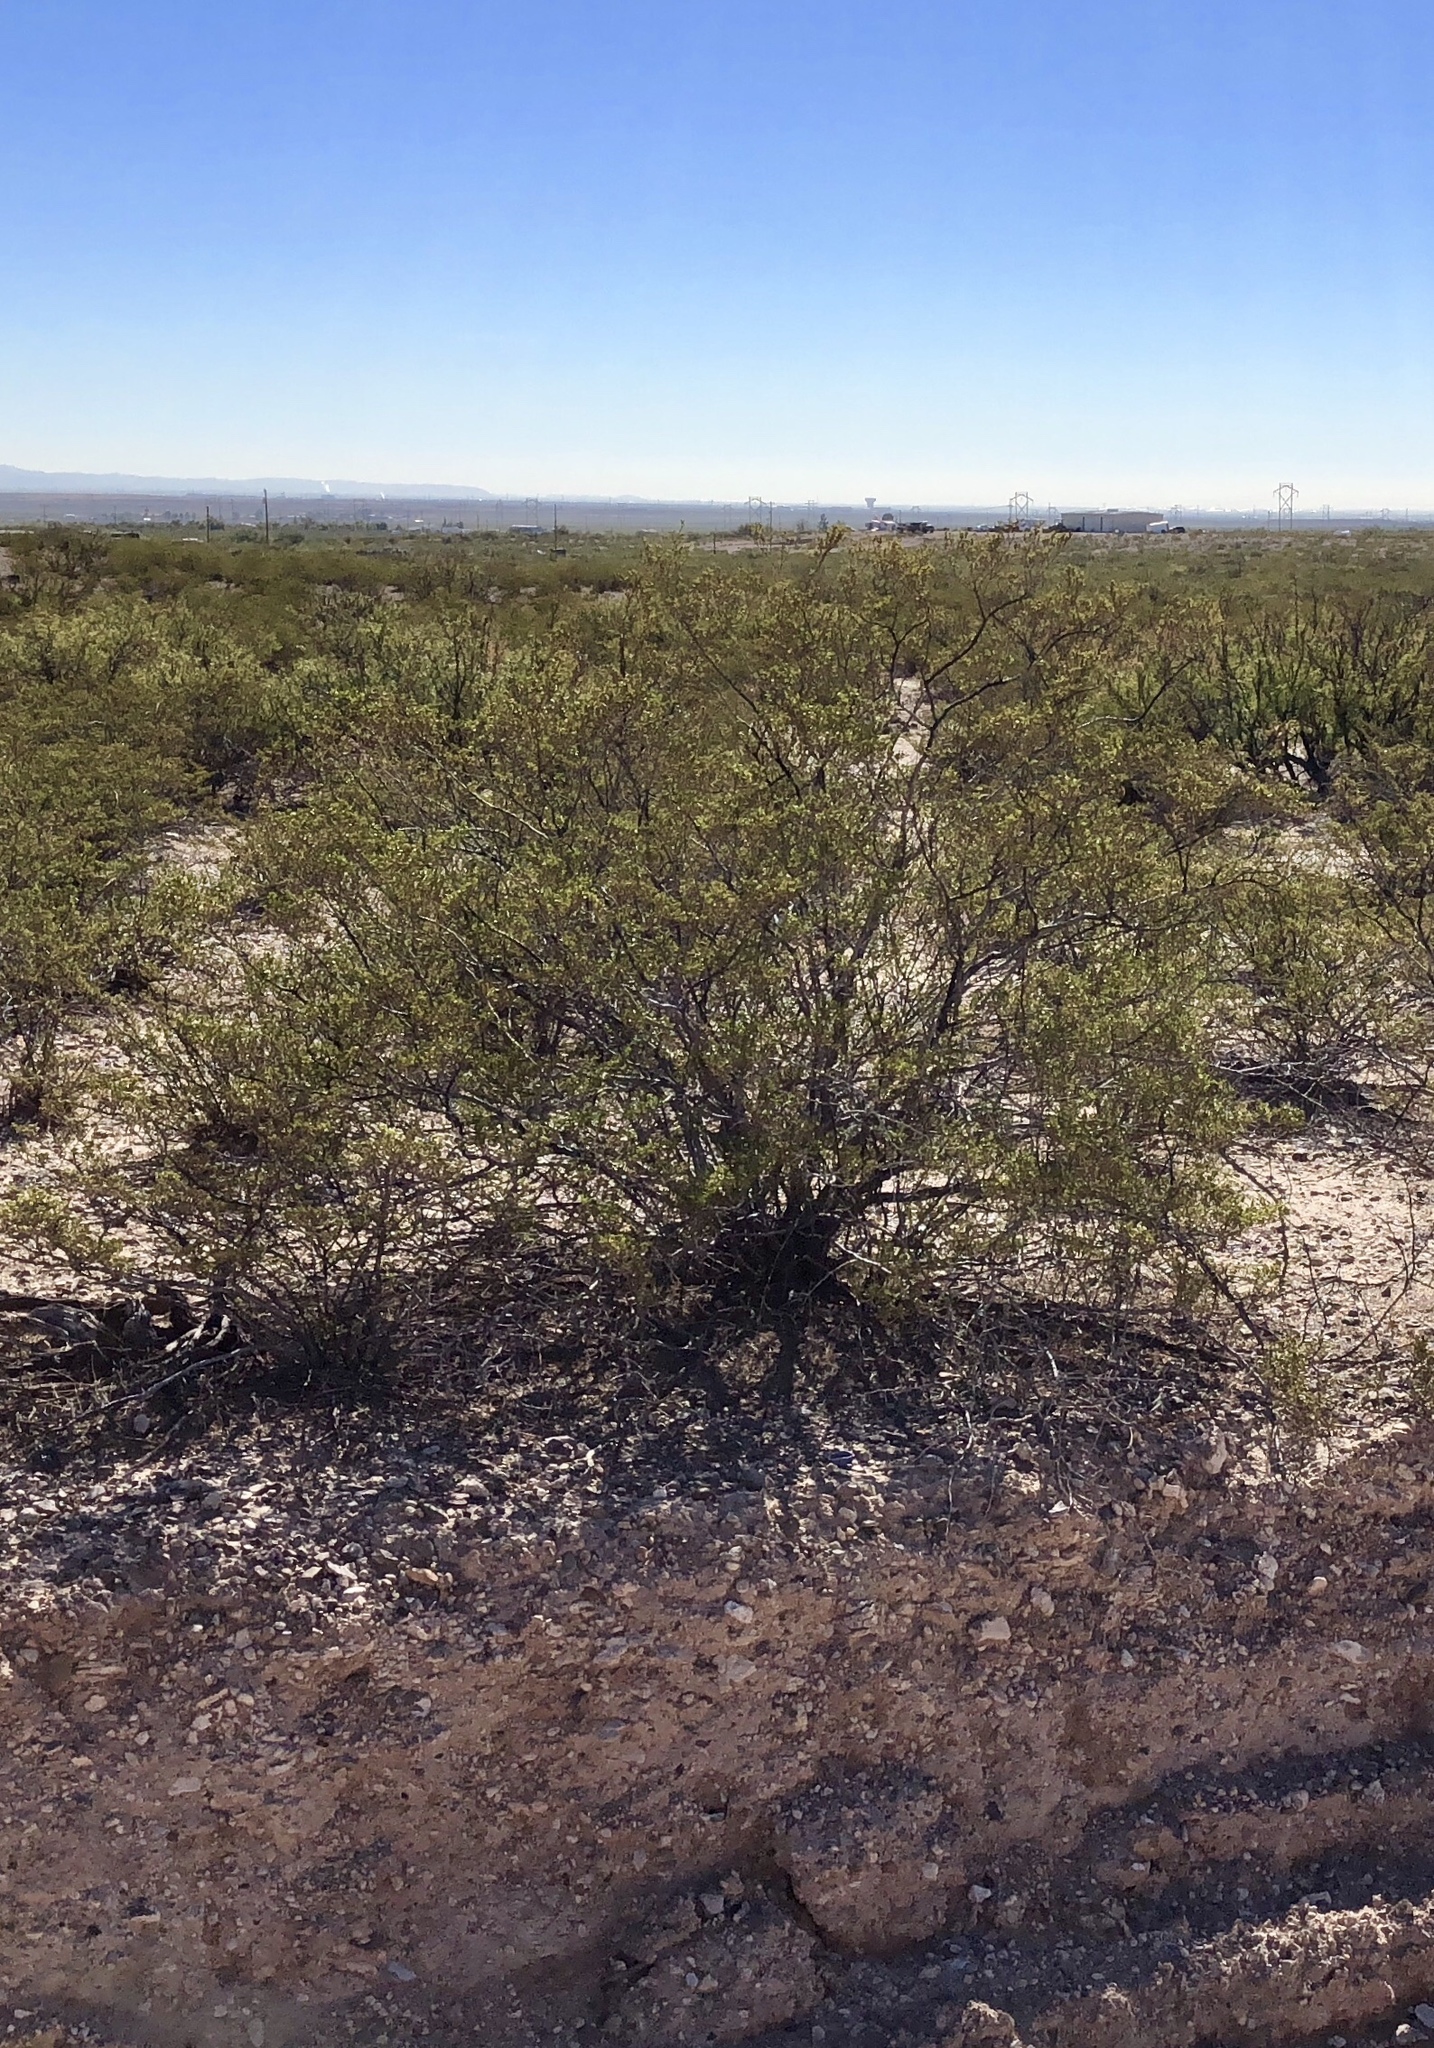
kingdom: Plantae
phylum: Tracheophyta
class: Magnoliopsida
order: Zygophyllales
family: Zygophyllaceae
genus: Larrea
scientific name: Larrea tridentata
